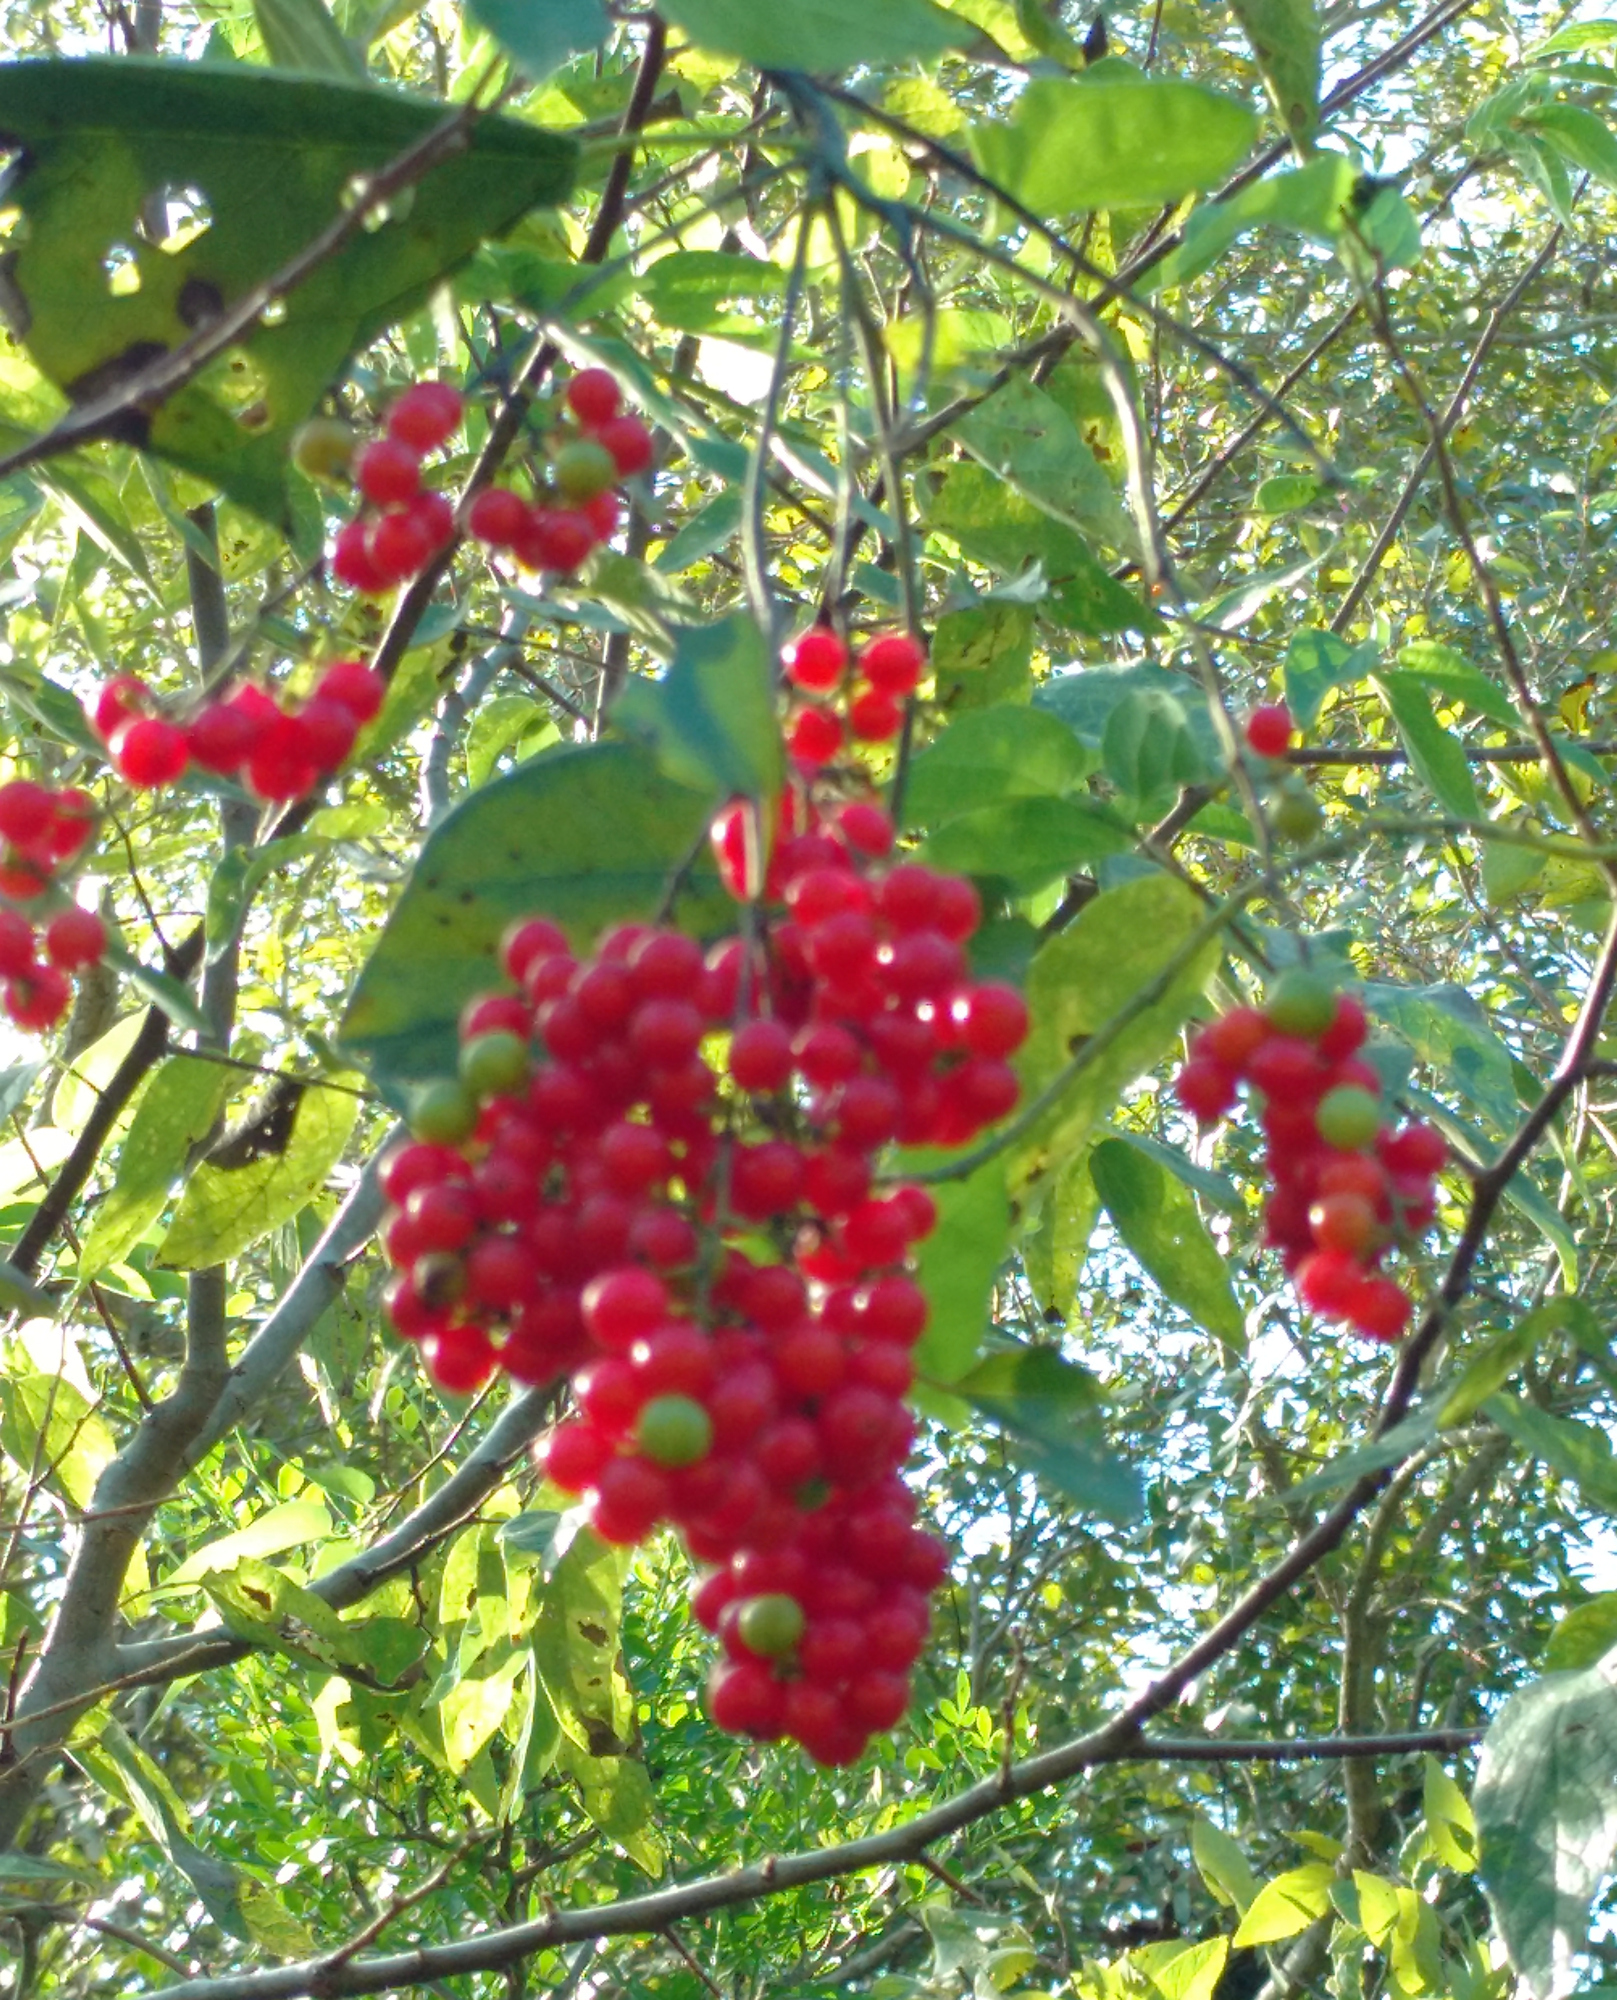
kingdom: Plantae
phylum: Tracheophyta
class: Magnoliopsida
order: Ranunculales
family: Menispermaceae
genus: Cocculus
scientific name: Cocculus carolinus
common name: Carolina moonseed
